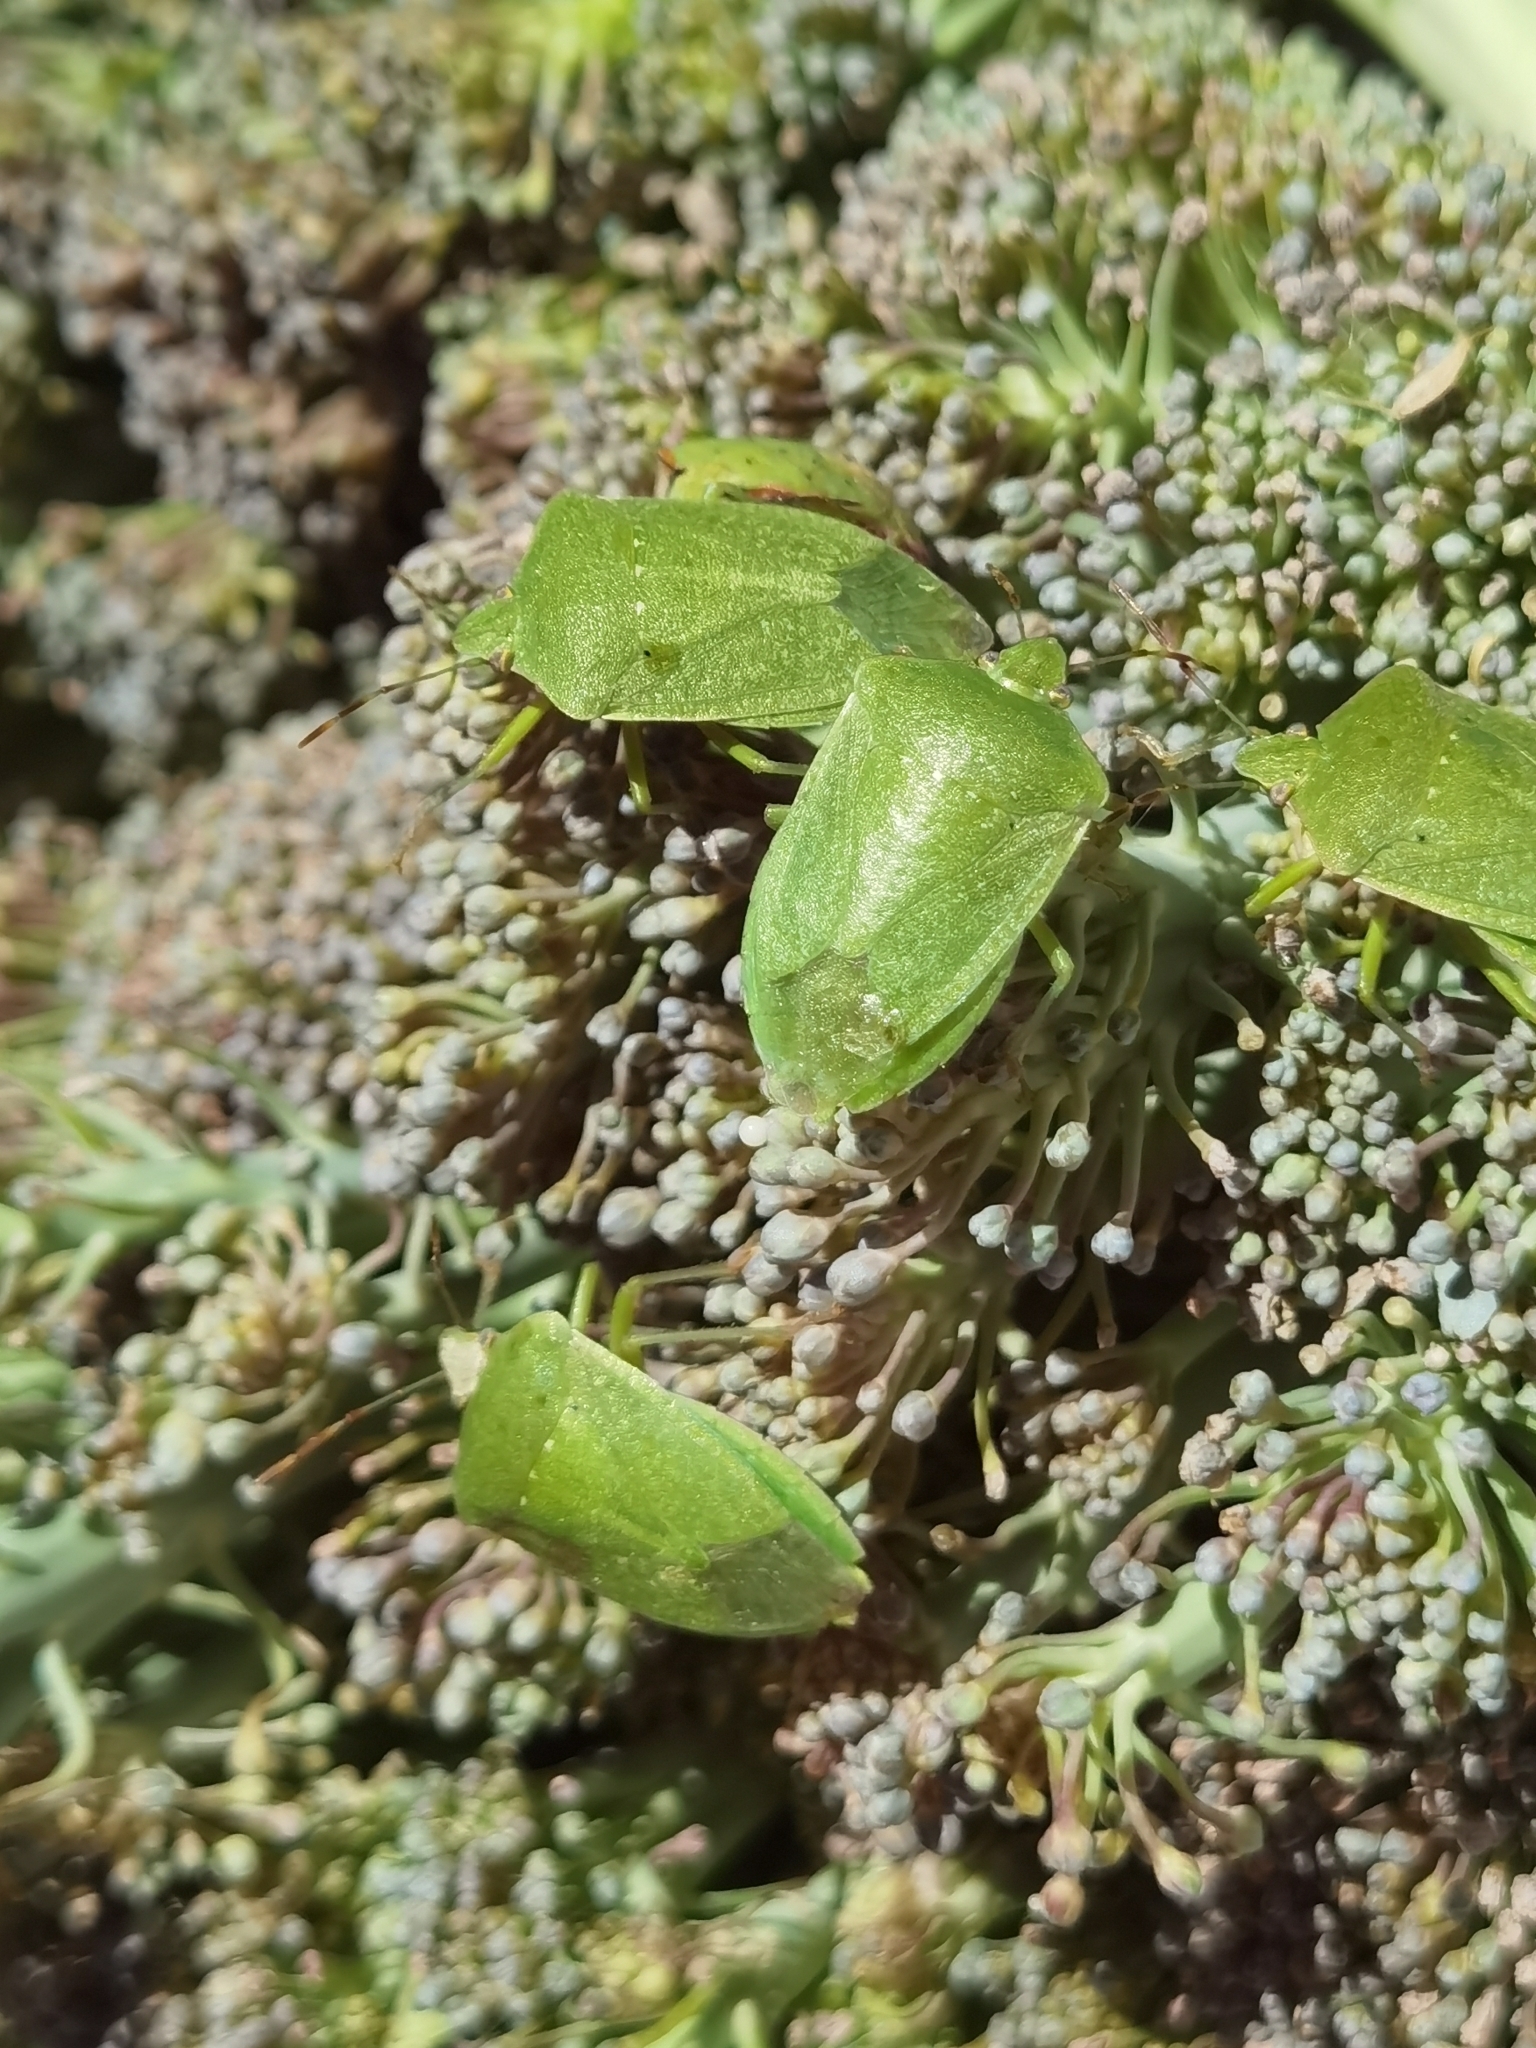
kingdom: Animalia
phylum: Arthropoda
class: Insecta
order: Hemiptera
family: Pentatomidae
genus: Nezara
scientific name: Nezara viridula
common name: Southern green stink bug
